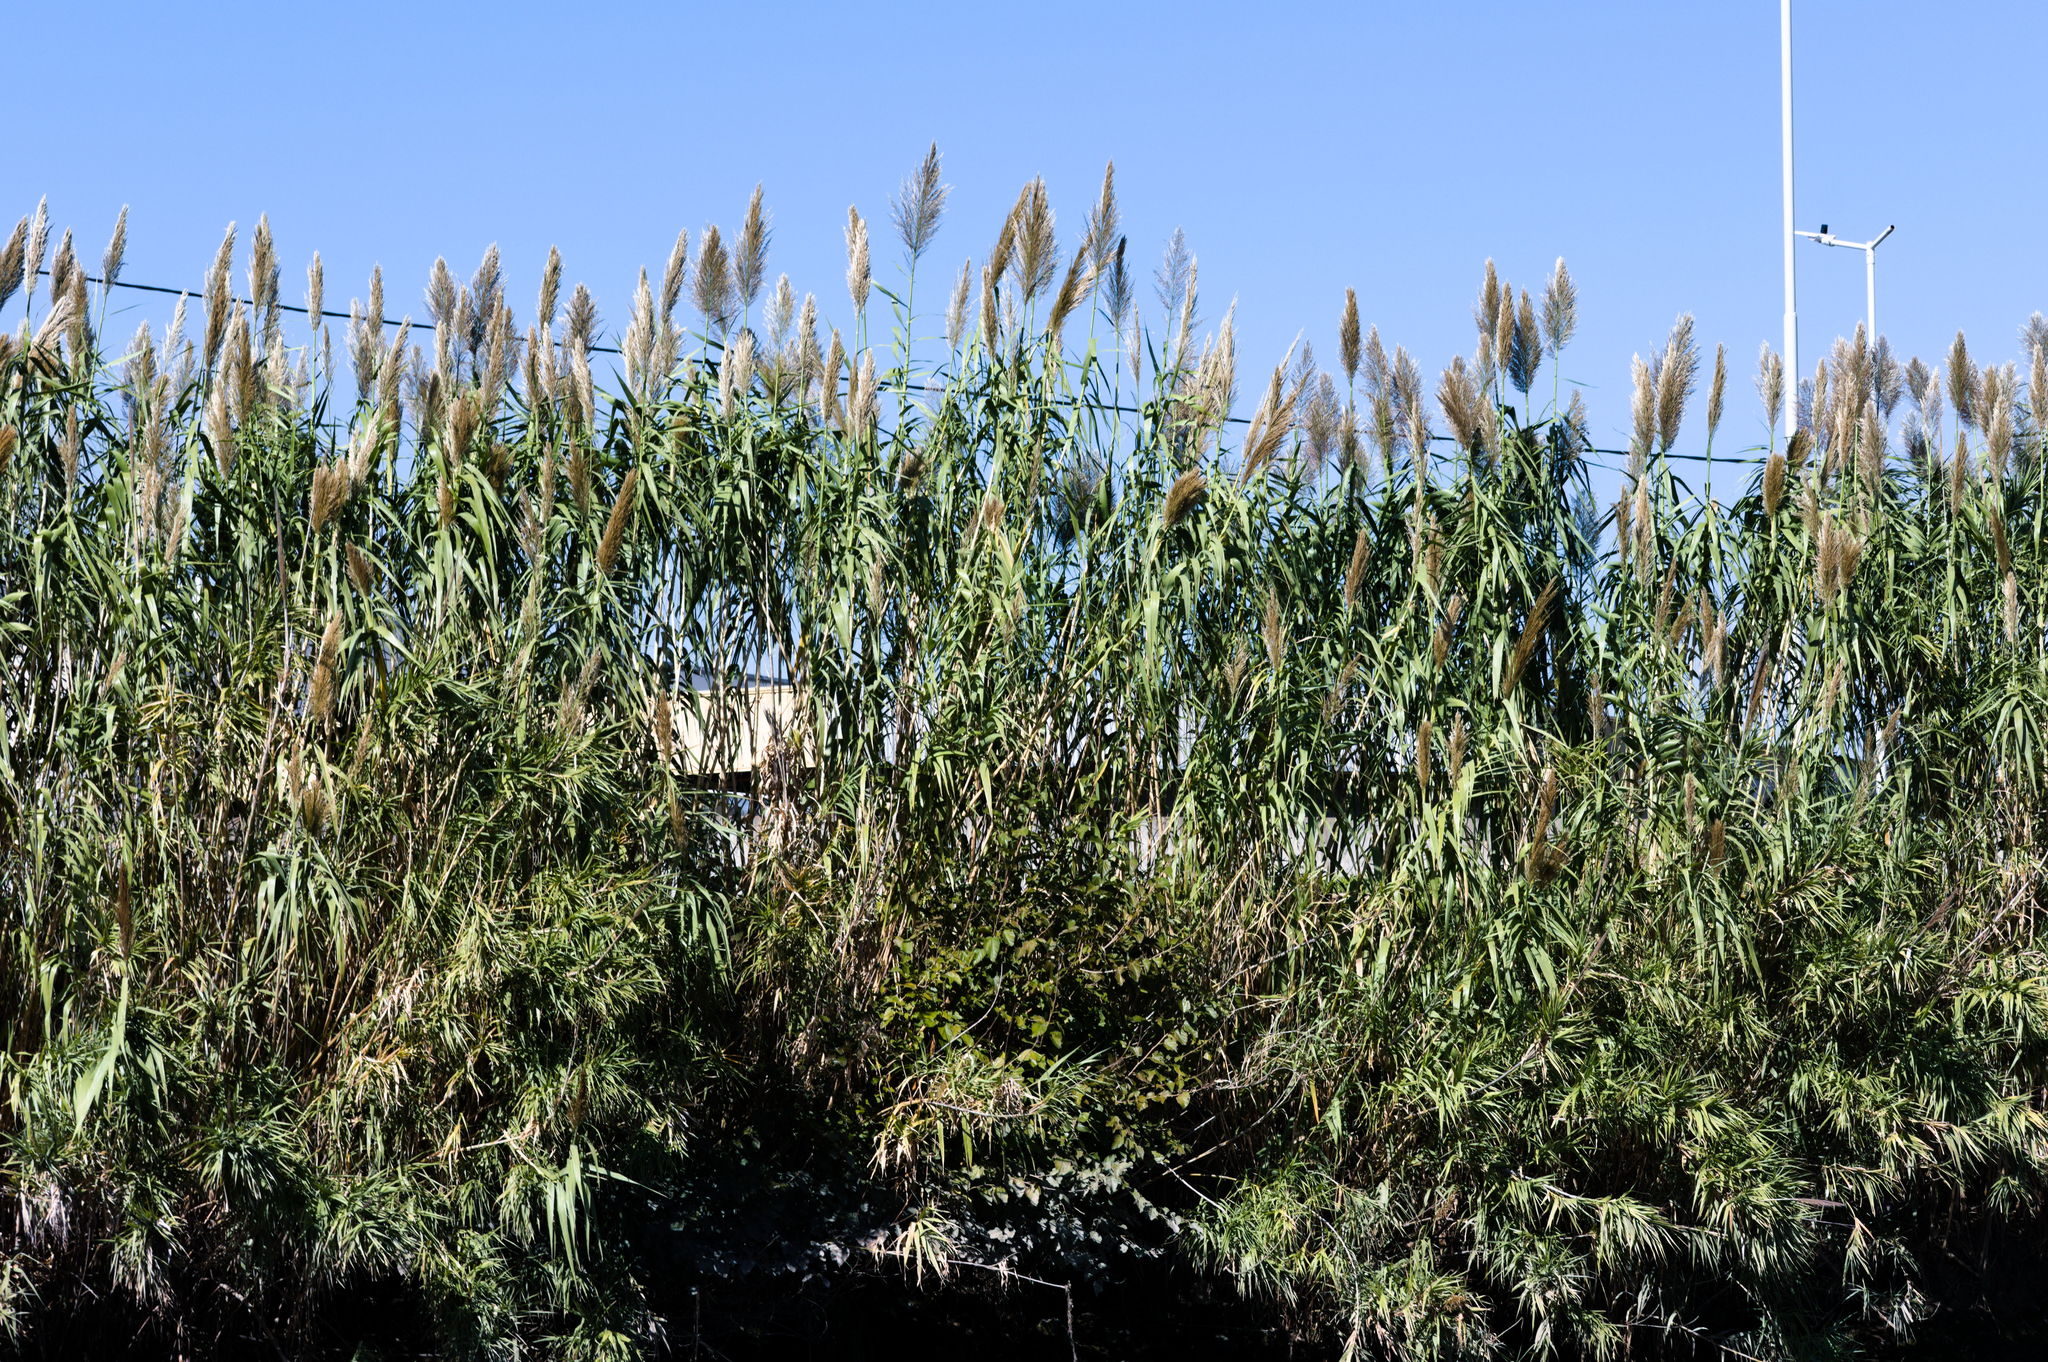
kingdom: Plantae
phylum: Tracheophyta
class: Liliopsida
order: Poales
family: Poaceae
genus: Arundo
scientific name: Arundo donax
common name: Giant reed
